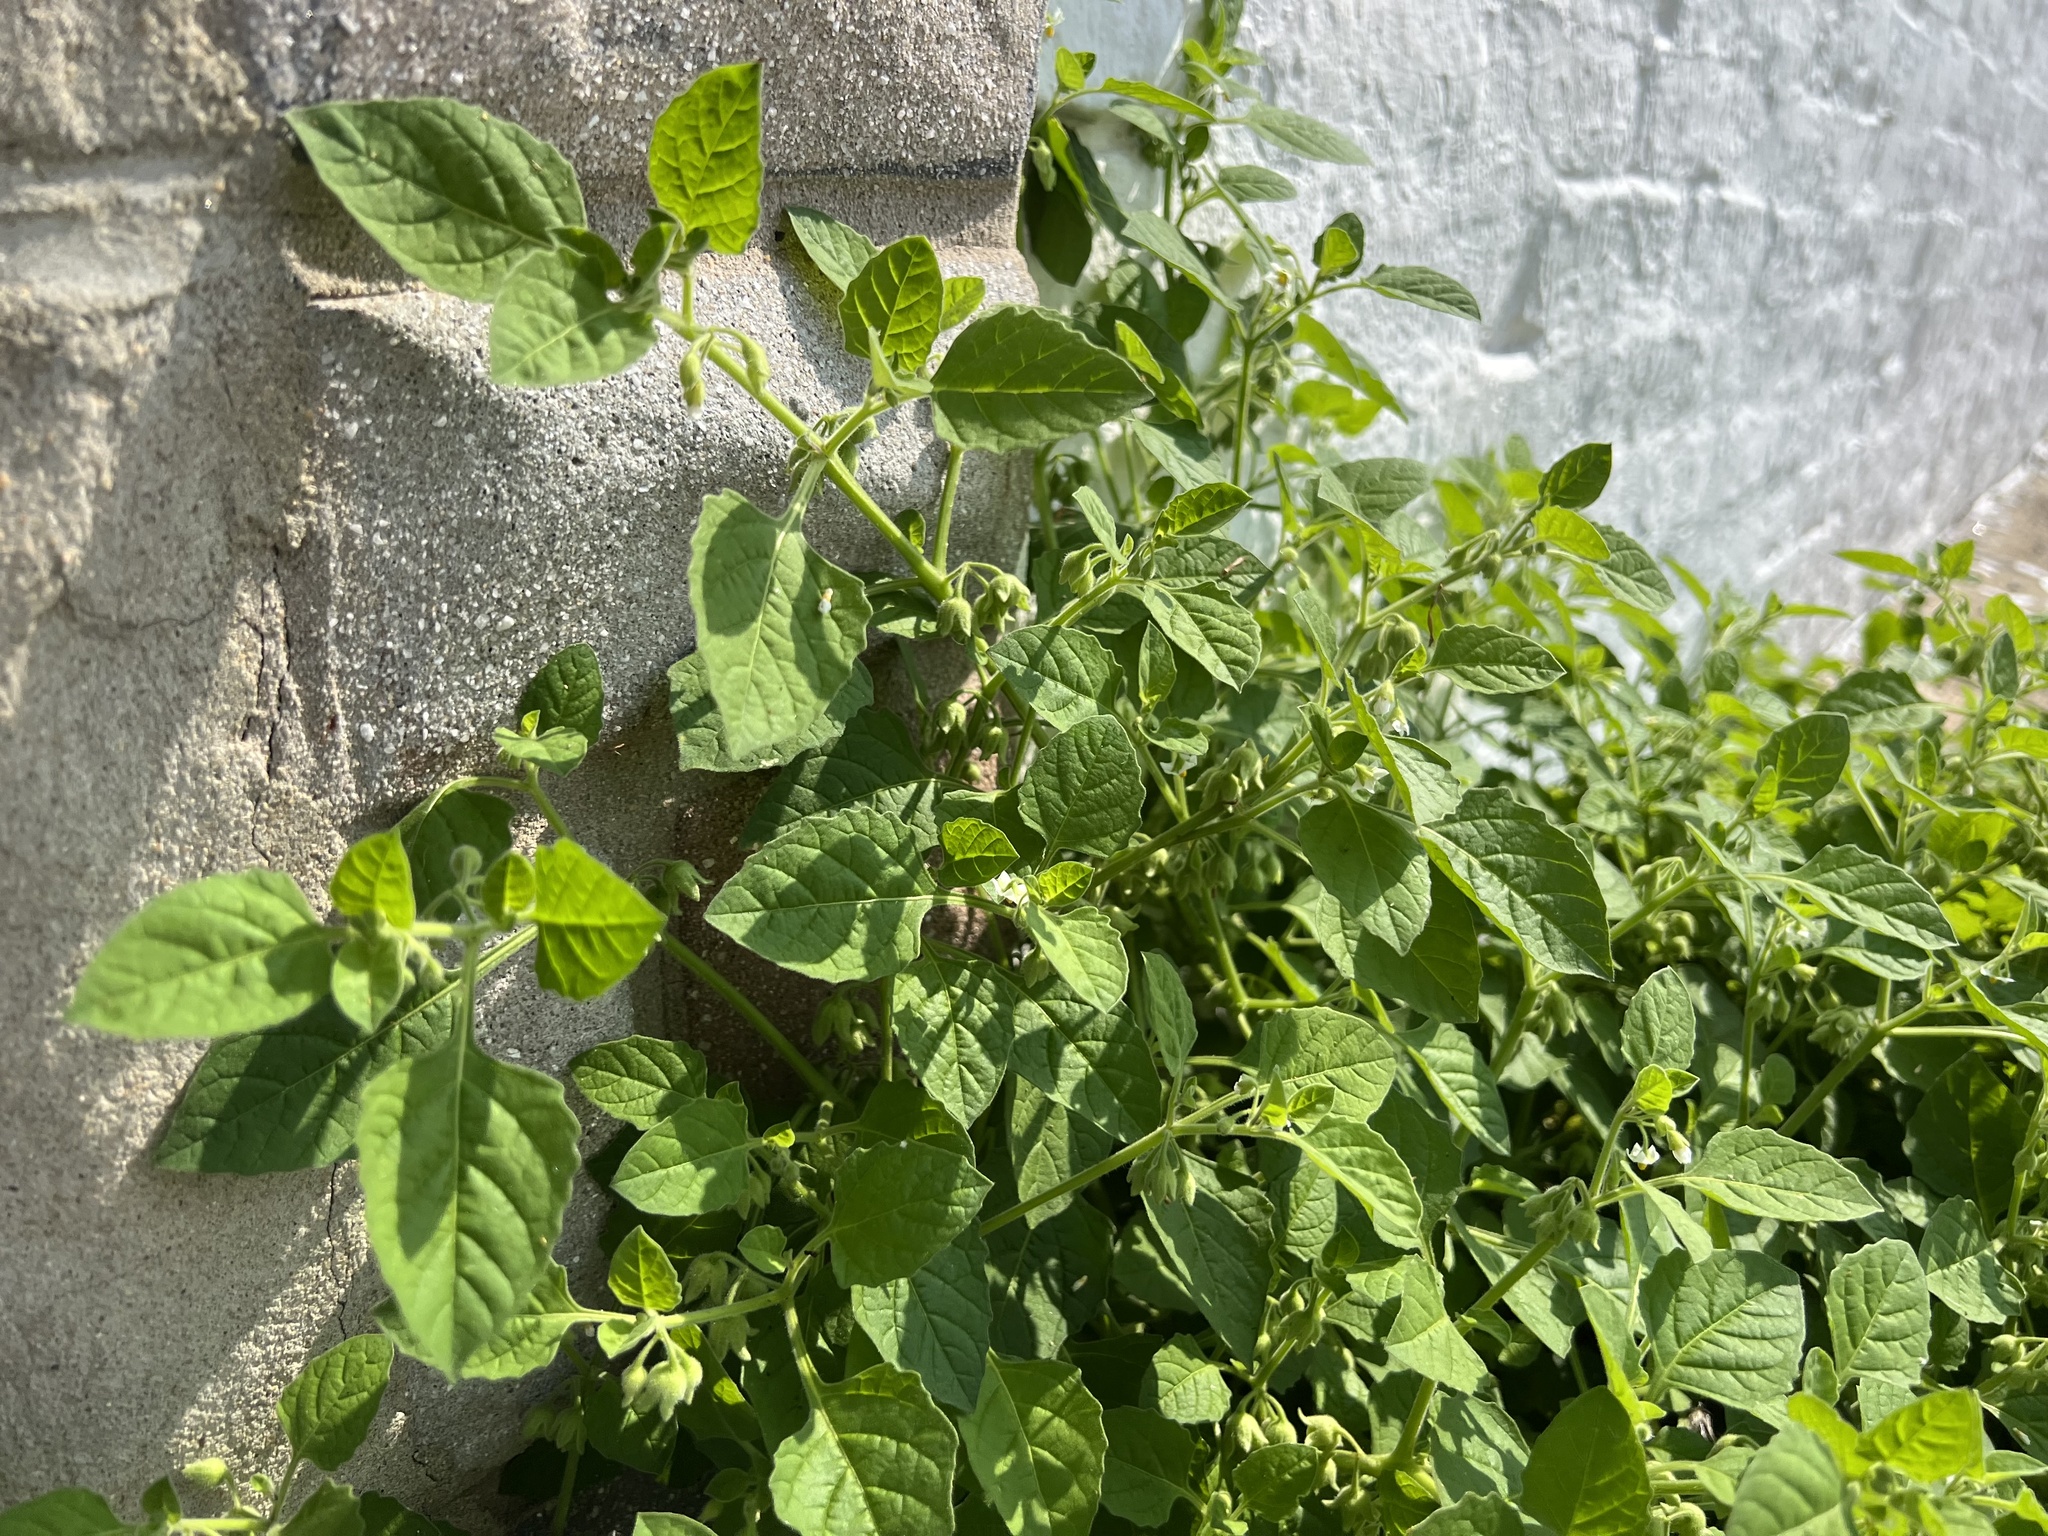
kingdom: Plantae
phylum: Tracheophyta
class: Magnoliopsida
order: Solanales
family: Solanaceae
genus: Solanum
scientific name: Solanum sarrachoides
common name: Leafy-fruited nightshade
